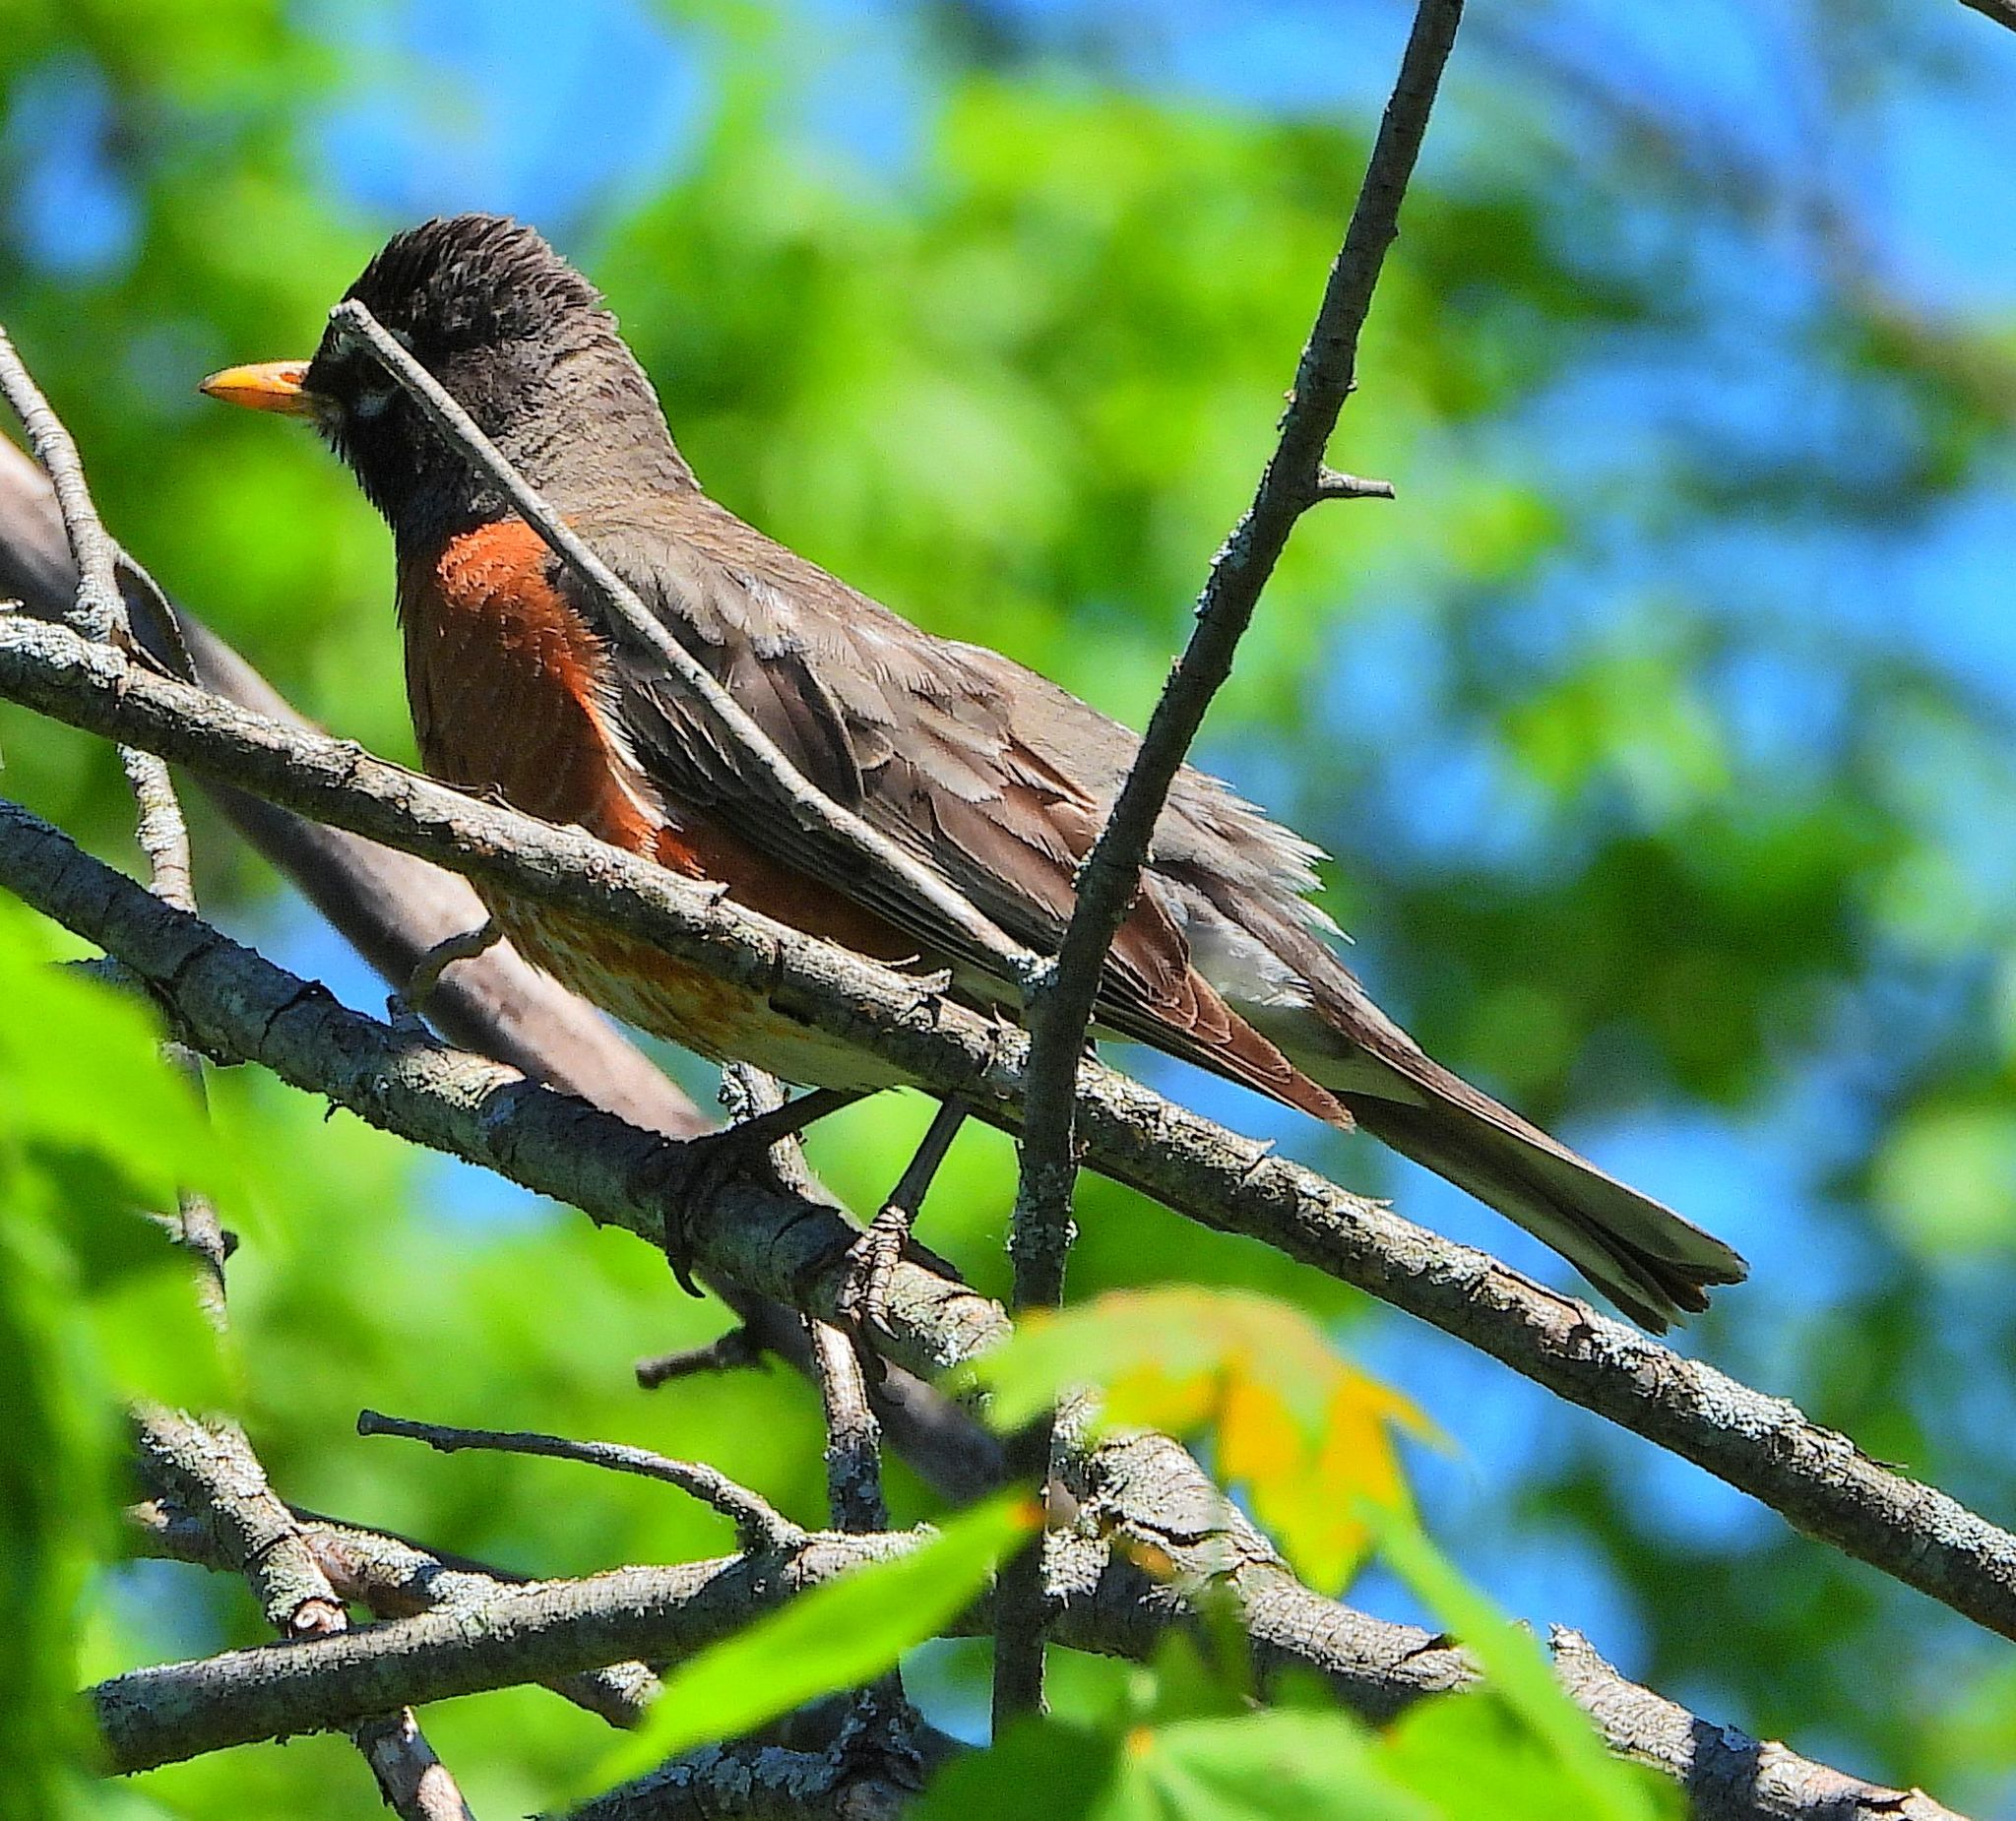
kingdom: Animalia
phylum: Chordata
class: Aves
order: Passeriformes
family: Turdidae
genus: Turdus
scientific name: Turdus migratorius
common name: American robin
